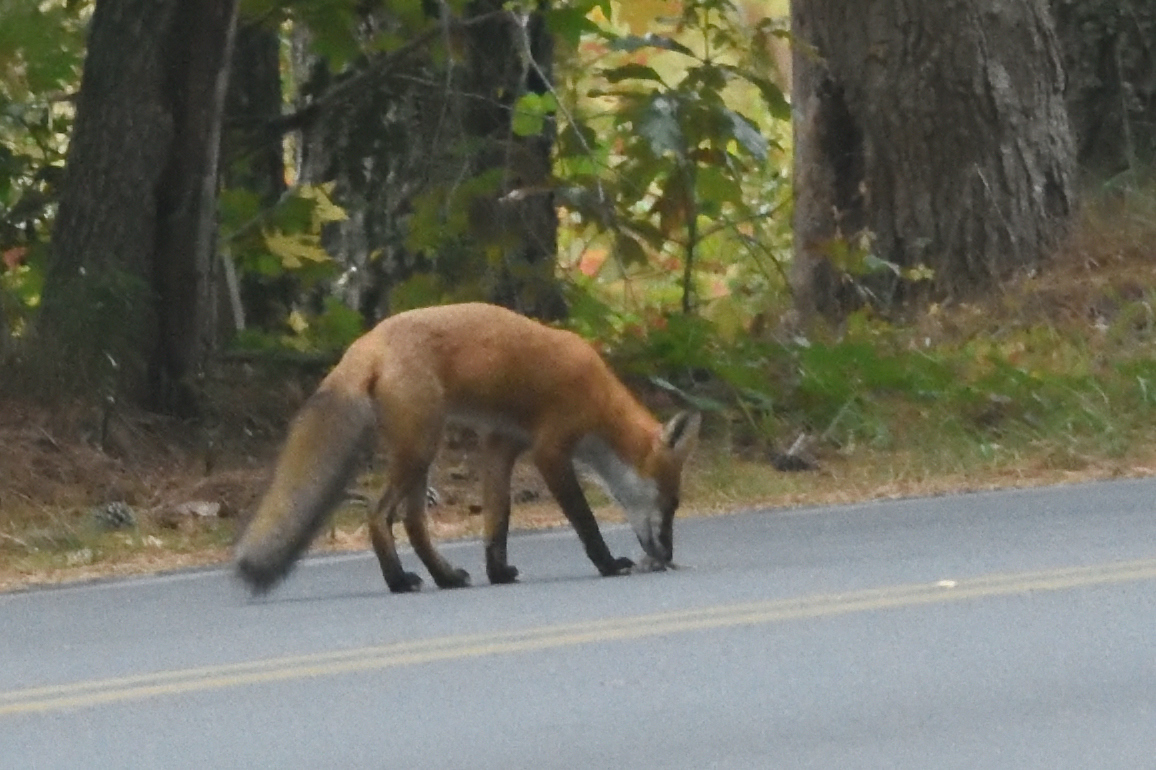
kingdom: Animalia
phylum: Chordata
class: Mammalia
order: Carnivora
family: Canidae
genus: Vulpes
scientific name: Vulpes vulpes
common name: Red fox
